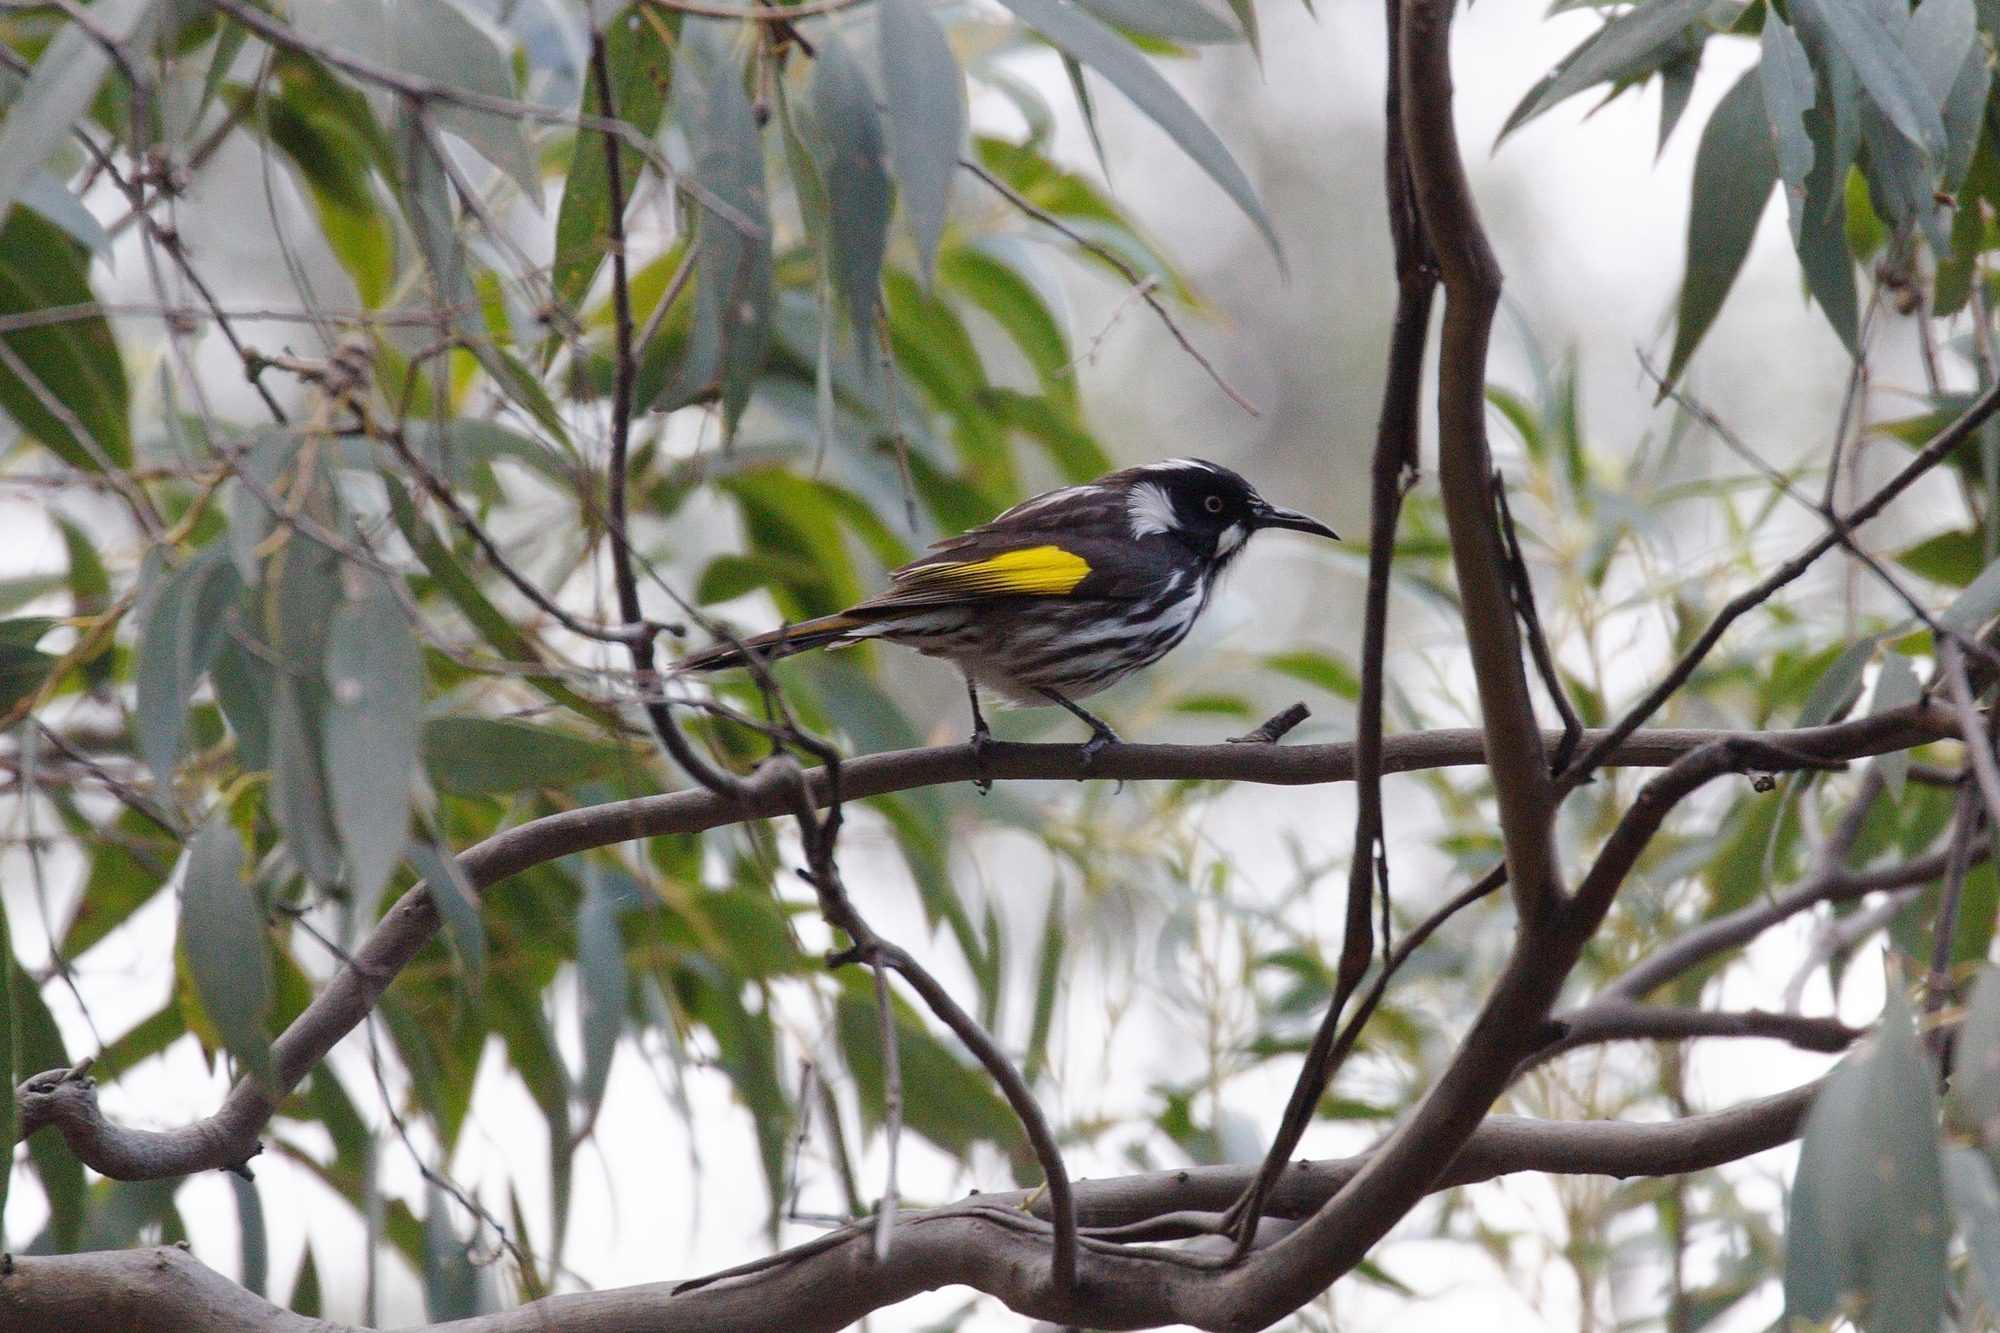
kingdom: Animalia
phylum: Chordata
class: Aves
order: Passeriformes
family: Meliphagidae
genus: Phylidonyris
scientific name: Phylidonyris novaehollandiae
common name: New holland honeyeater
